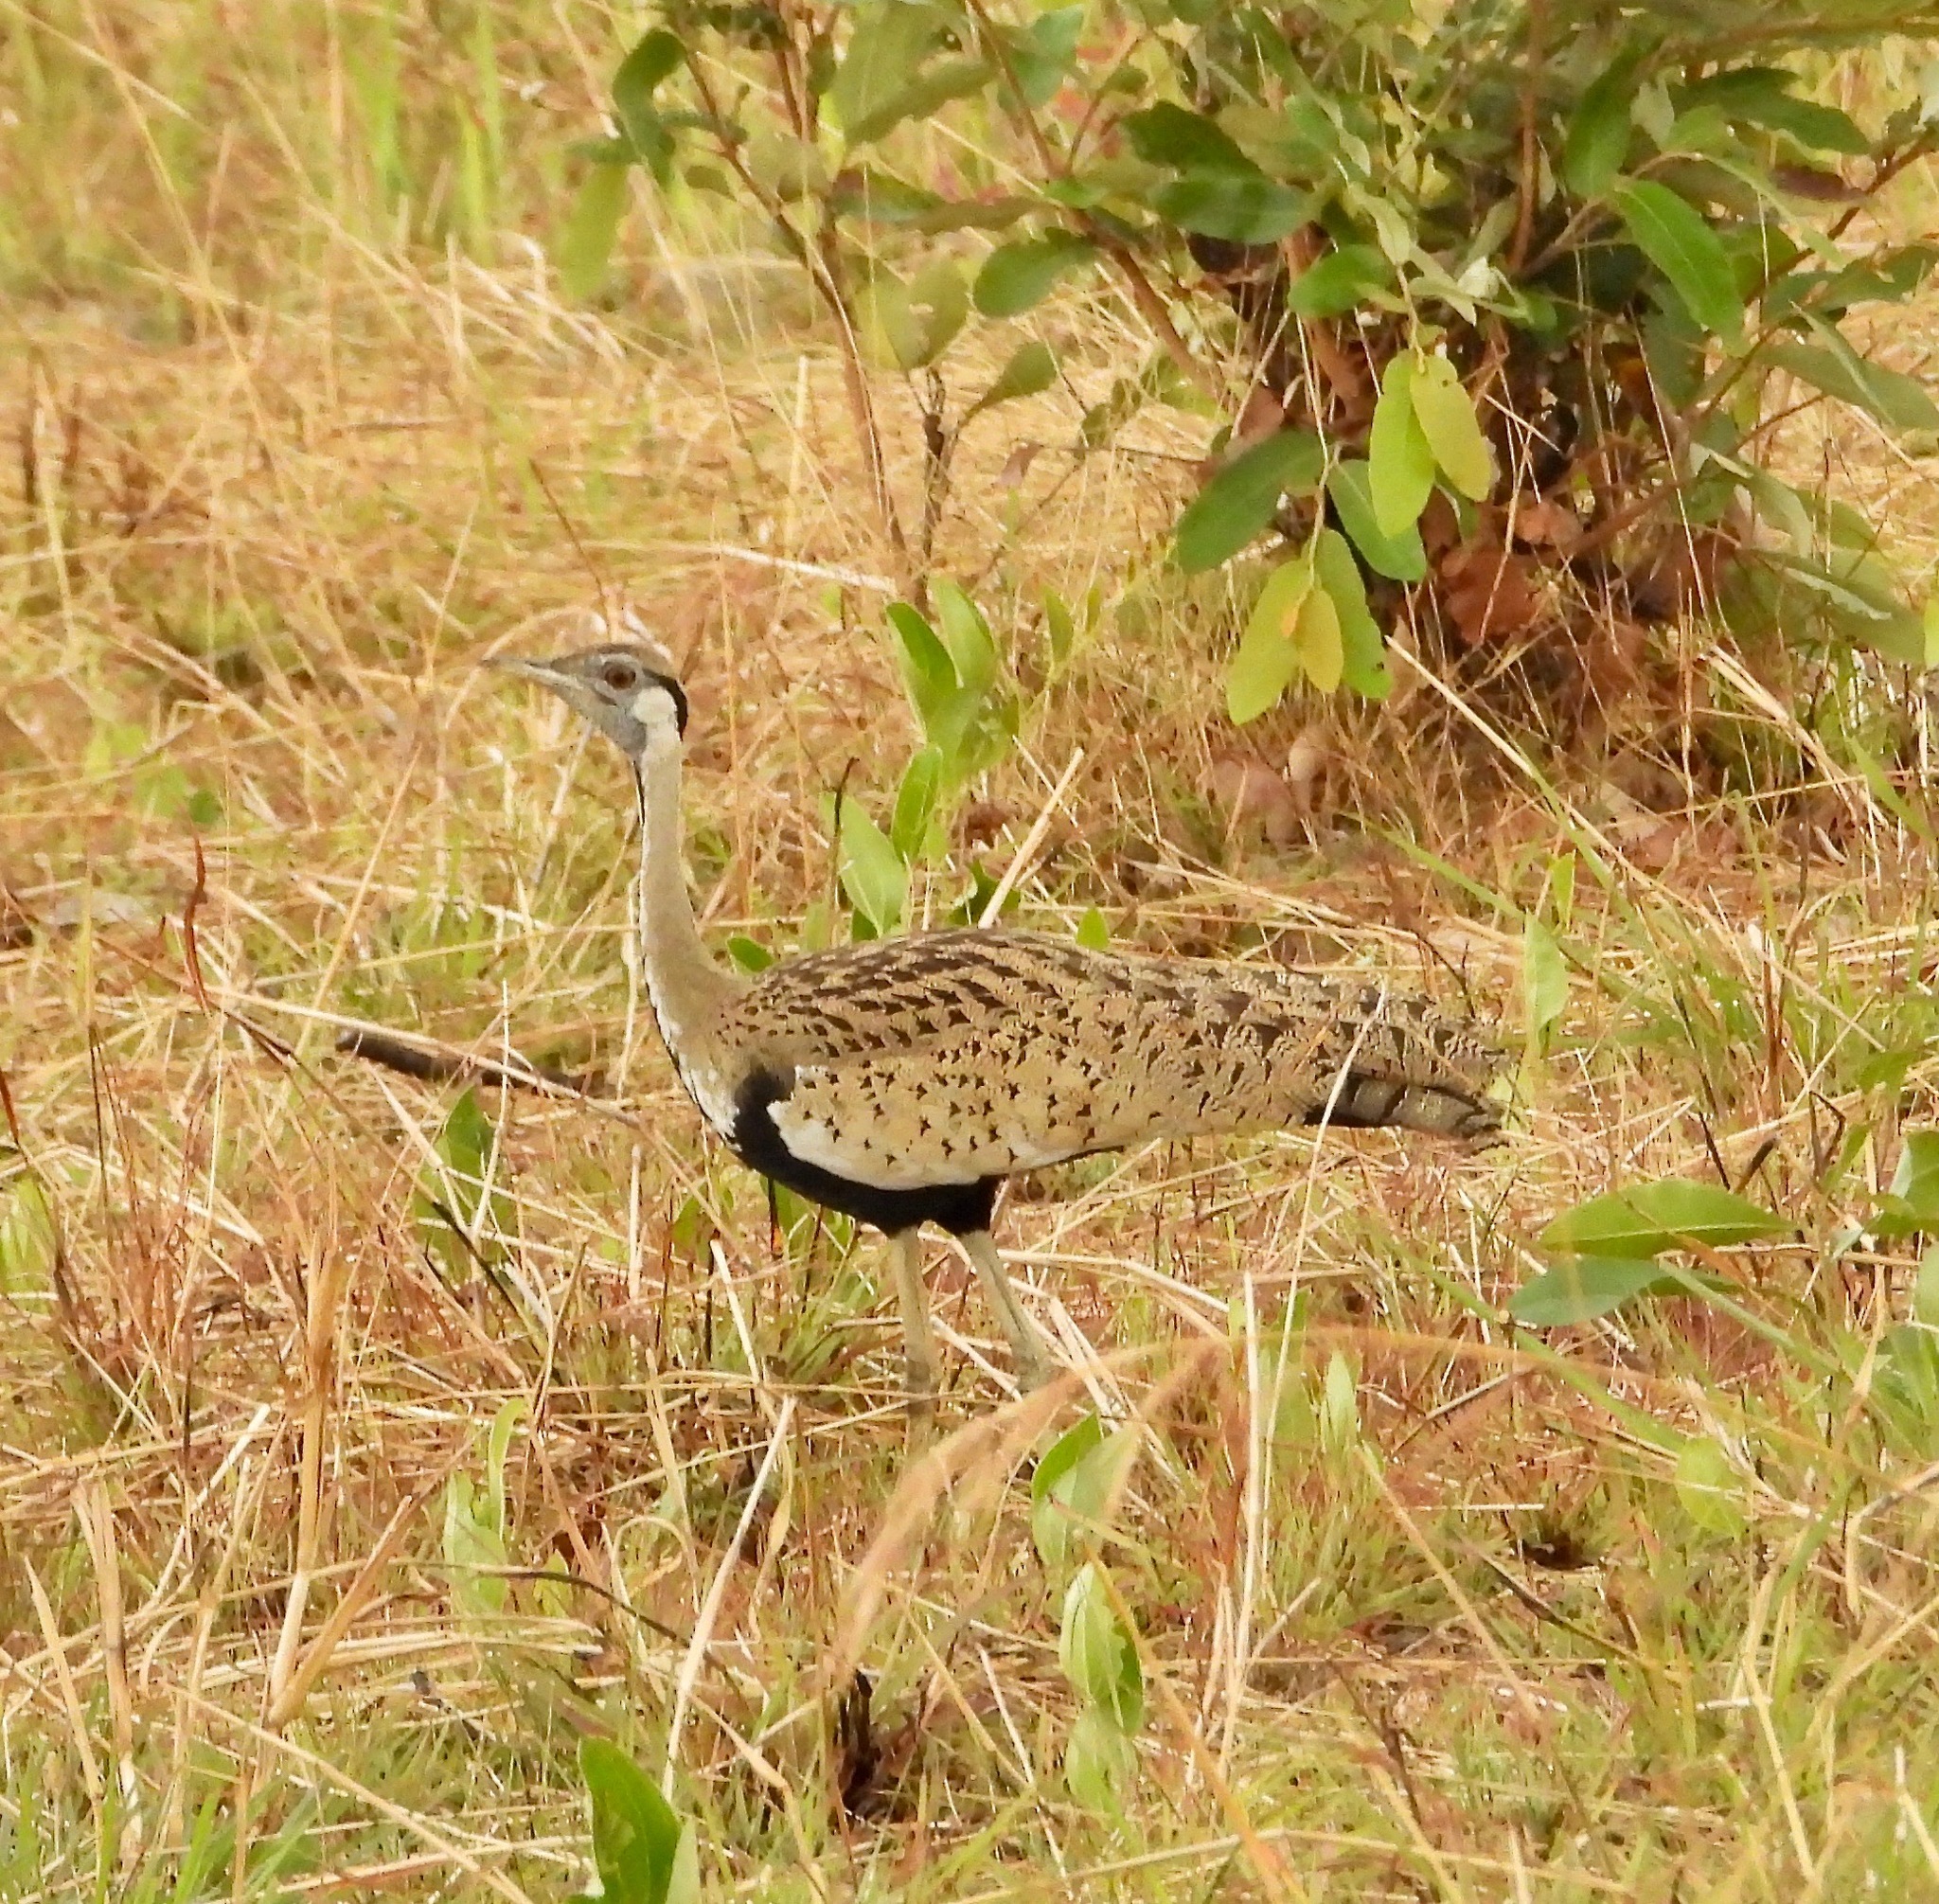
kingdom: Animalia
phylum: Chordata
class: Aves
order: Otidiformes
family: Otididae
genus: Lissotis
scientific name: Lissotis melanogaster
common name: Black-bellied bustard
